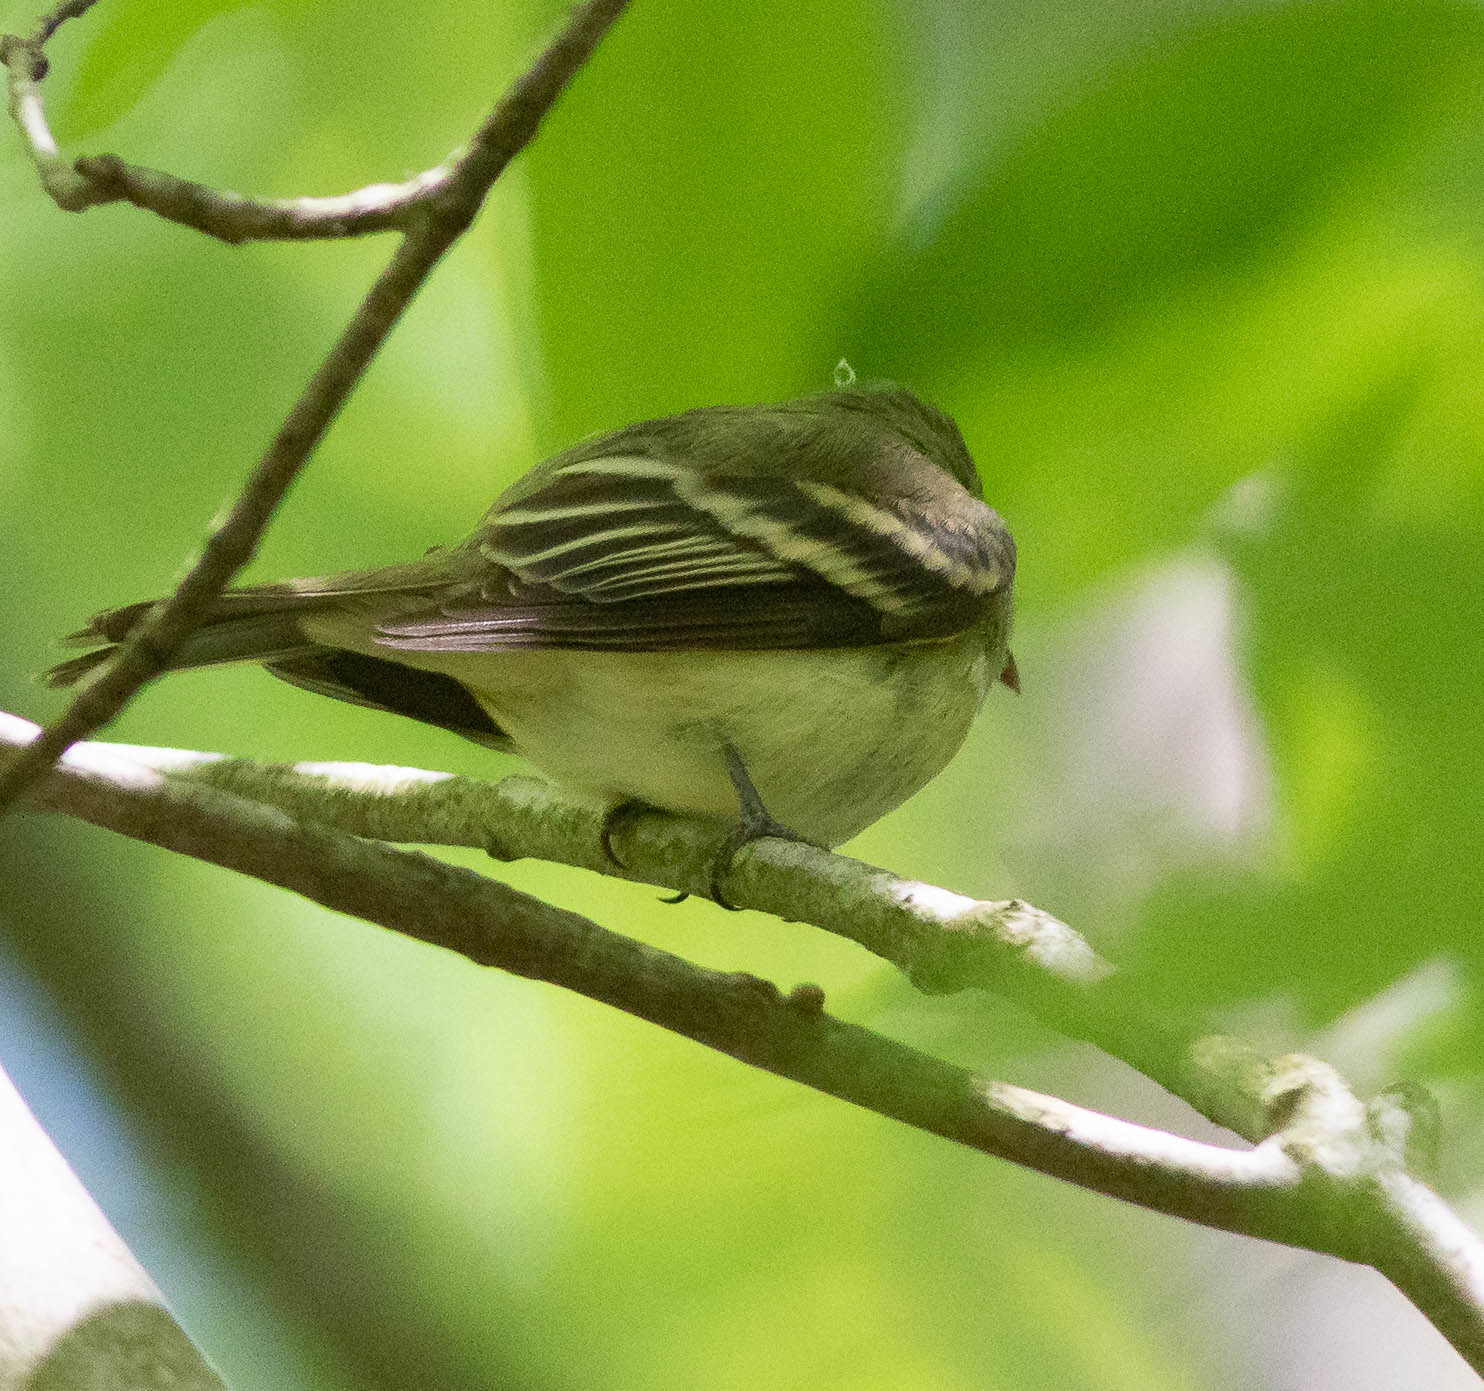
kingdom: Animalia
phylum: Chordata
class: Aves
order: Passeriformes
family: Tyrannidae
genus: Empidonax
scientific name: Empidonax virescens
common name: Acadian flycatcher
